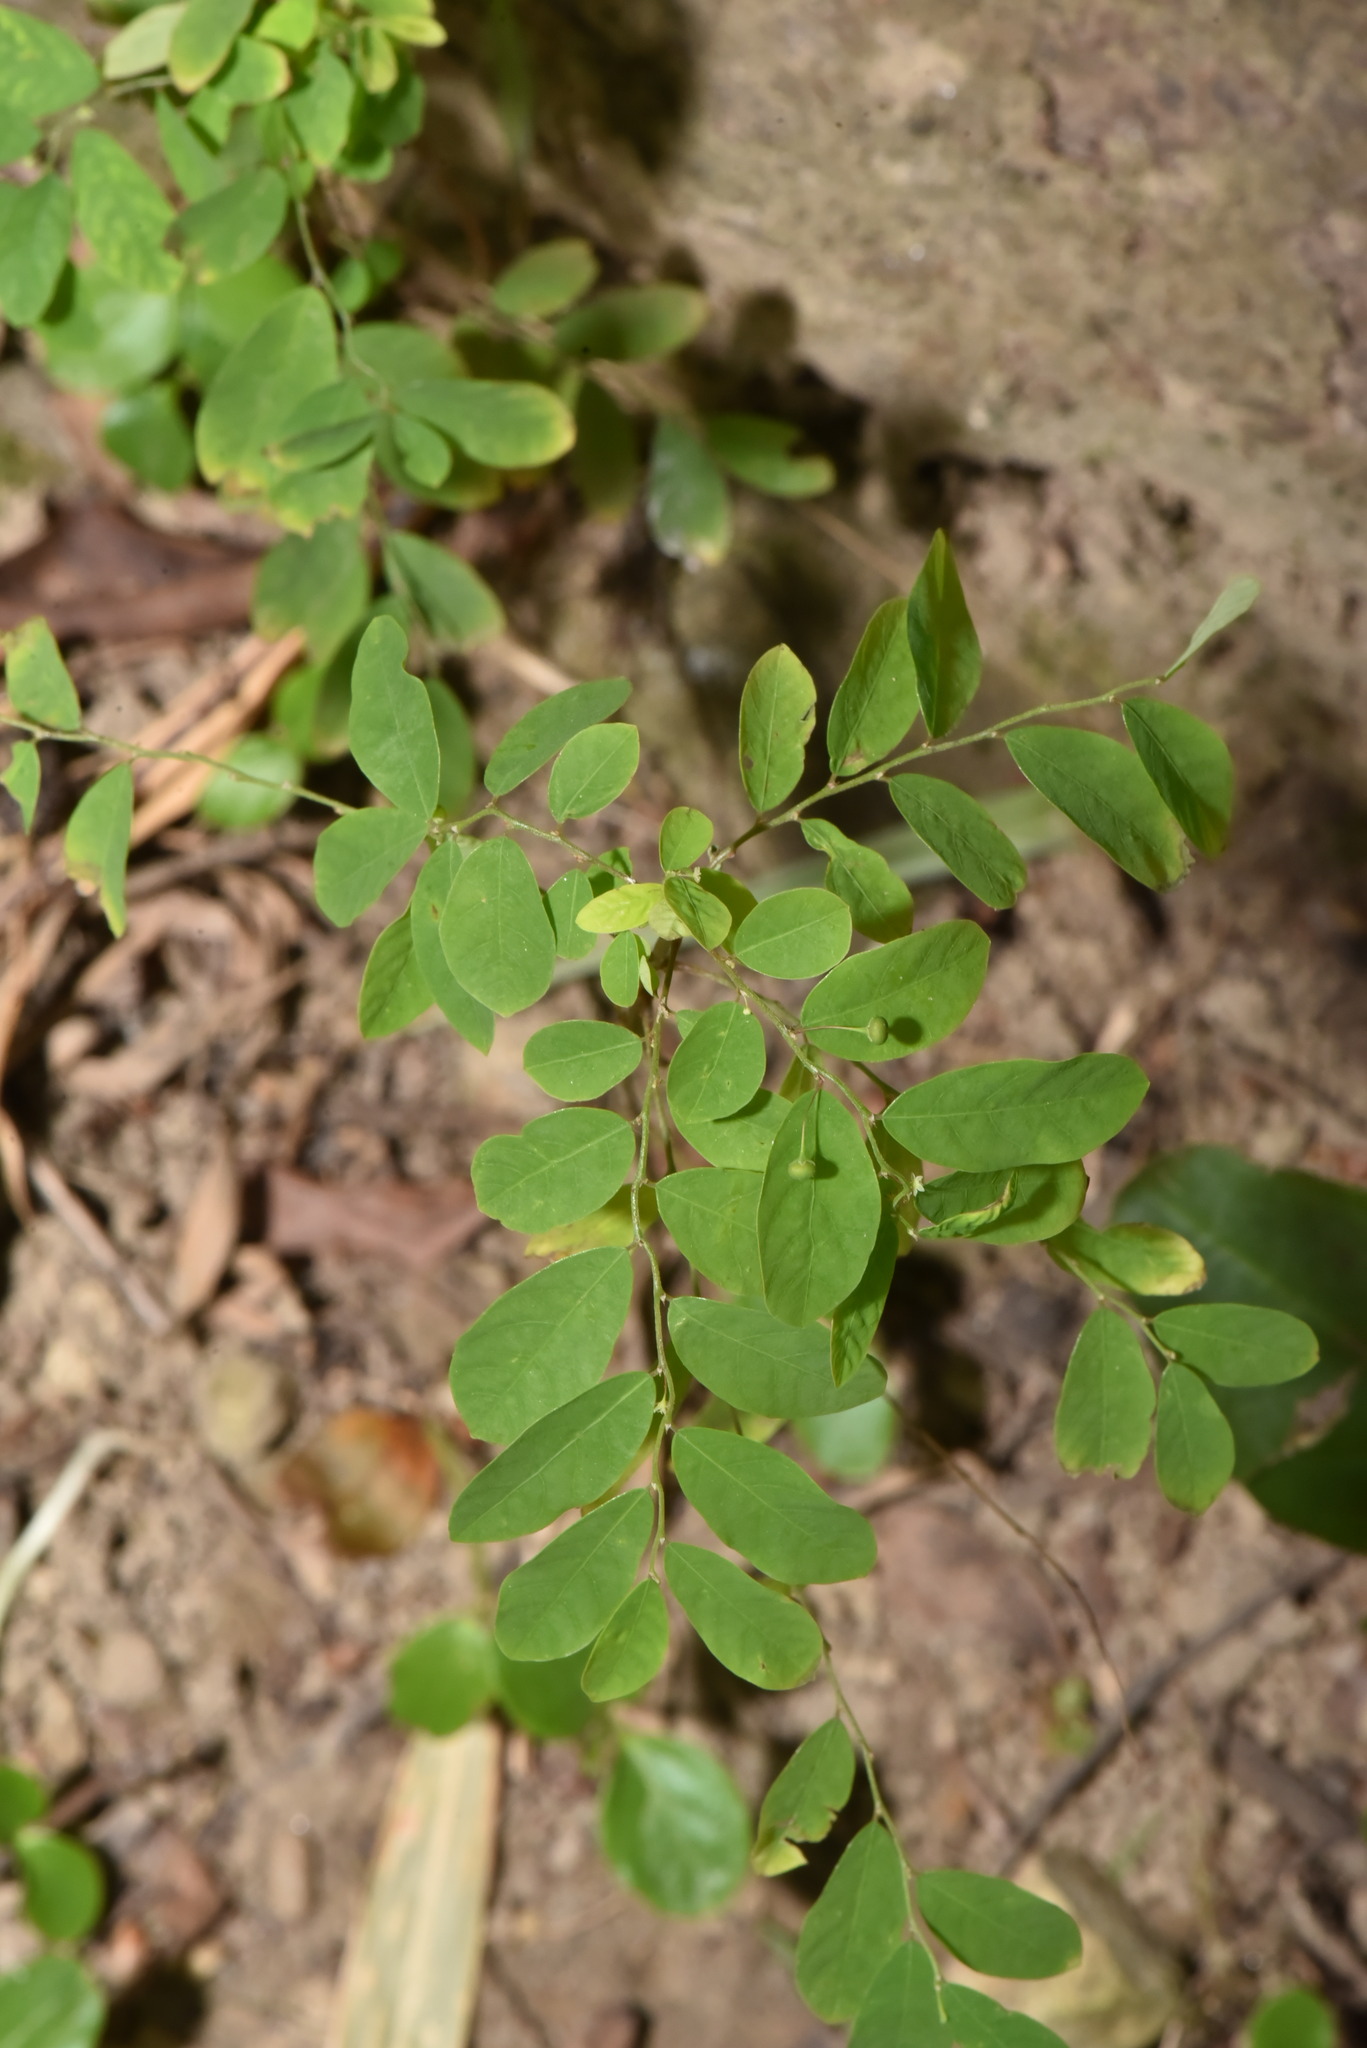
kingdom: Plantae
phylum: Tracheophyta
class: Magnoliopsida
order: Malpighiales
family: Phyllanthaceae
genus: Phyllanthus
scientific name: Phyllanthus tenellus
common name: Mascarene island leaf-flower
